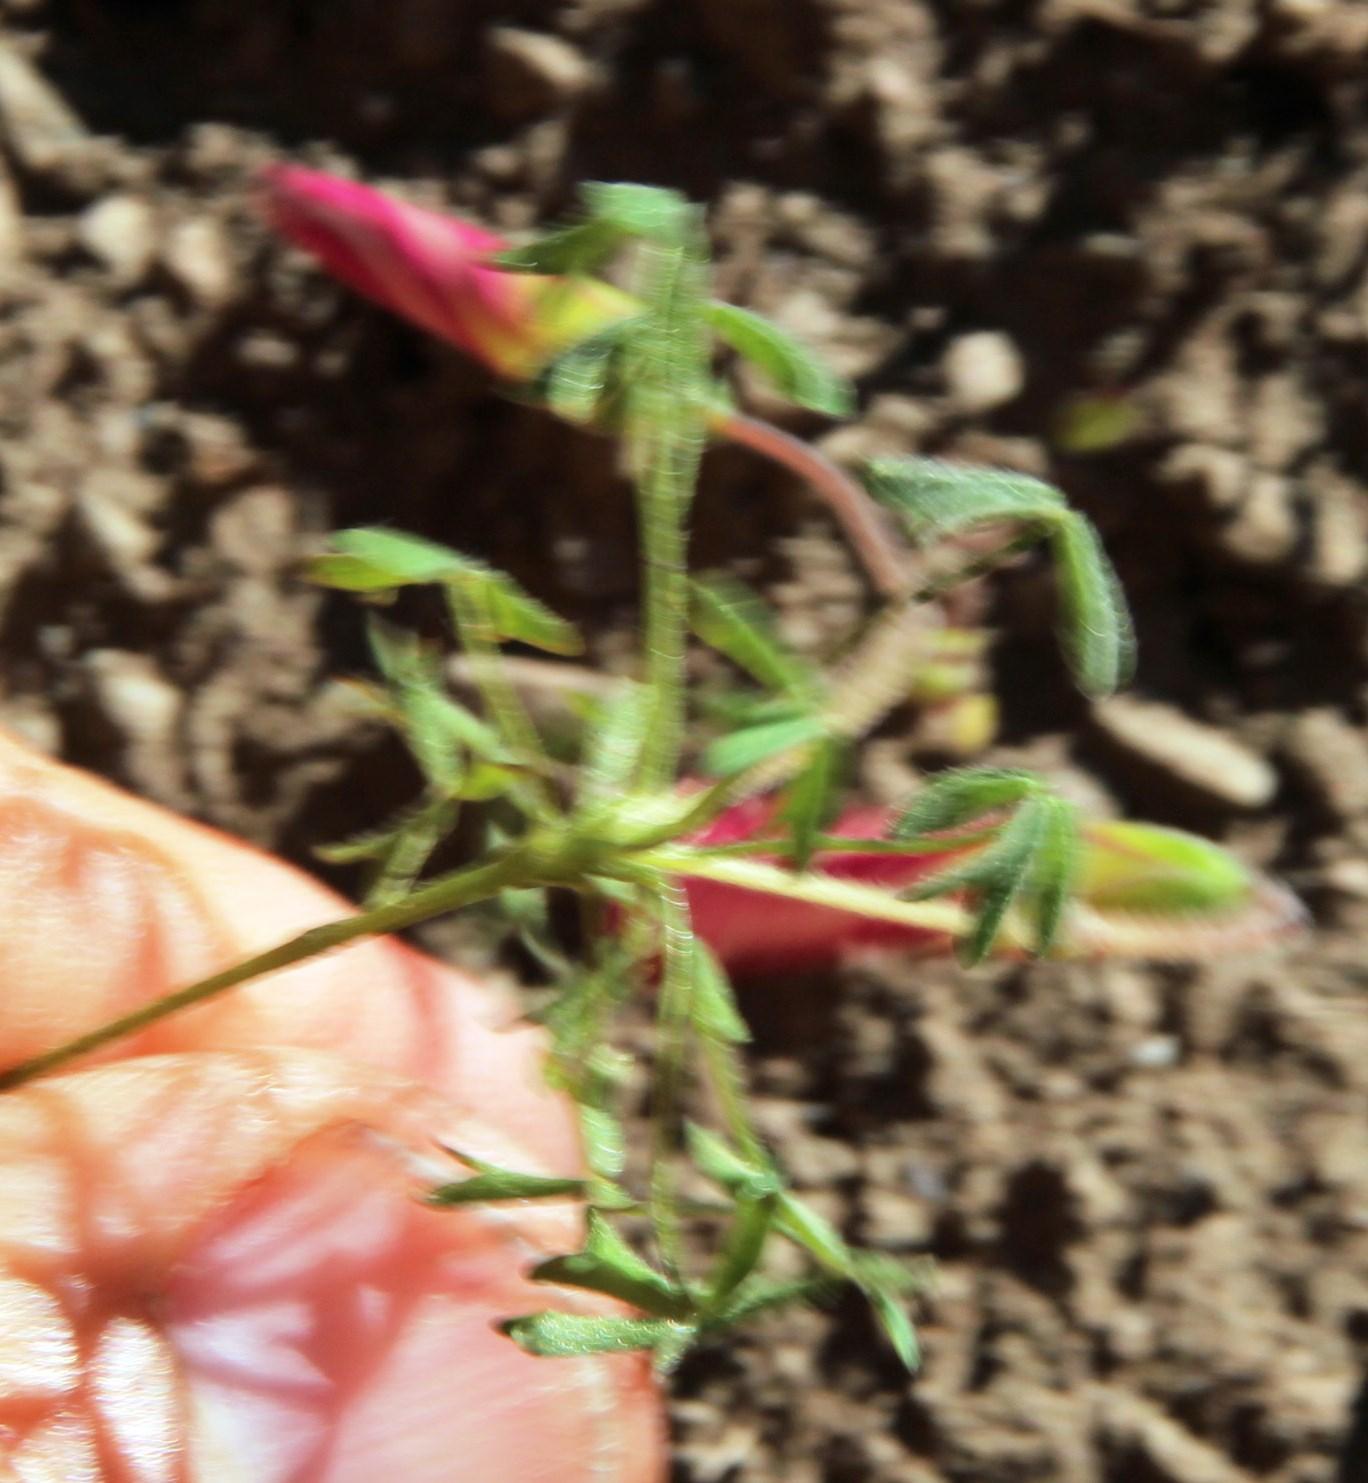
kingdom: Plantae
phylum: Tracheophyta
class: Magnoliopsida
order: Oxalidales
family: Oxalidaceae
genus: Oxalis
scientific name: Oxalis obtusa
